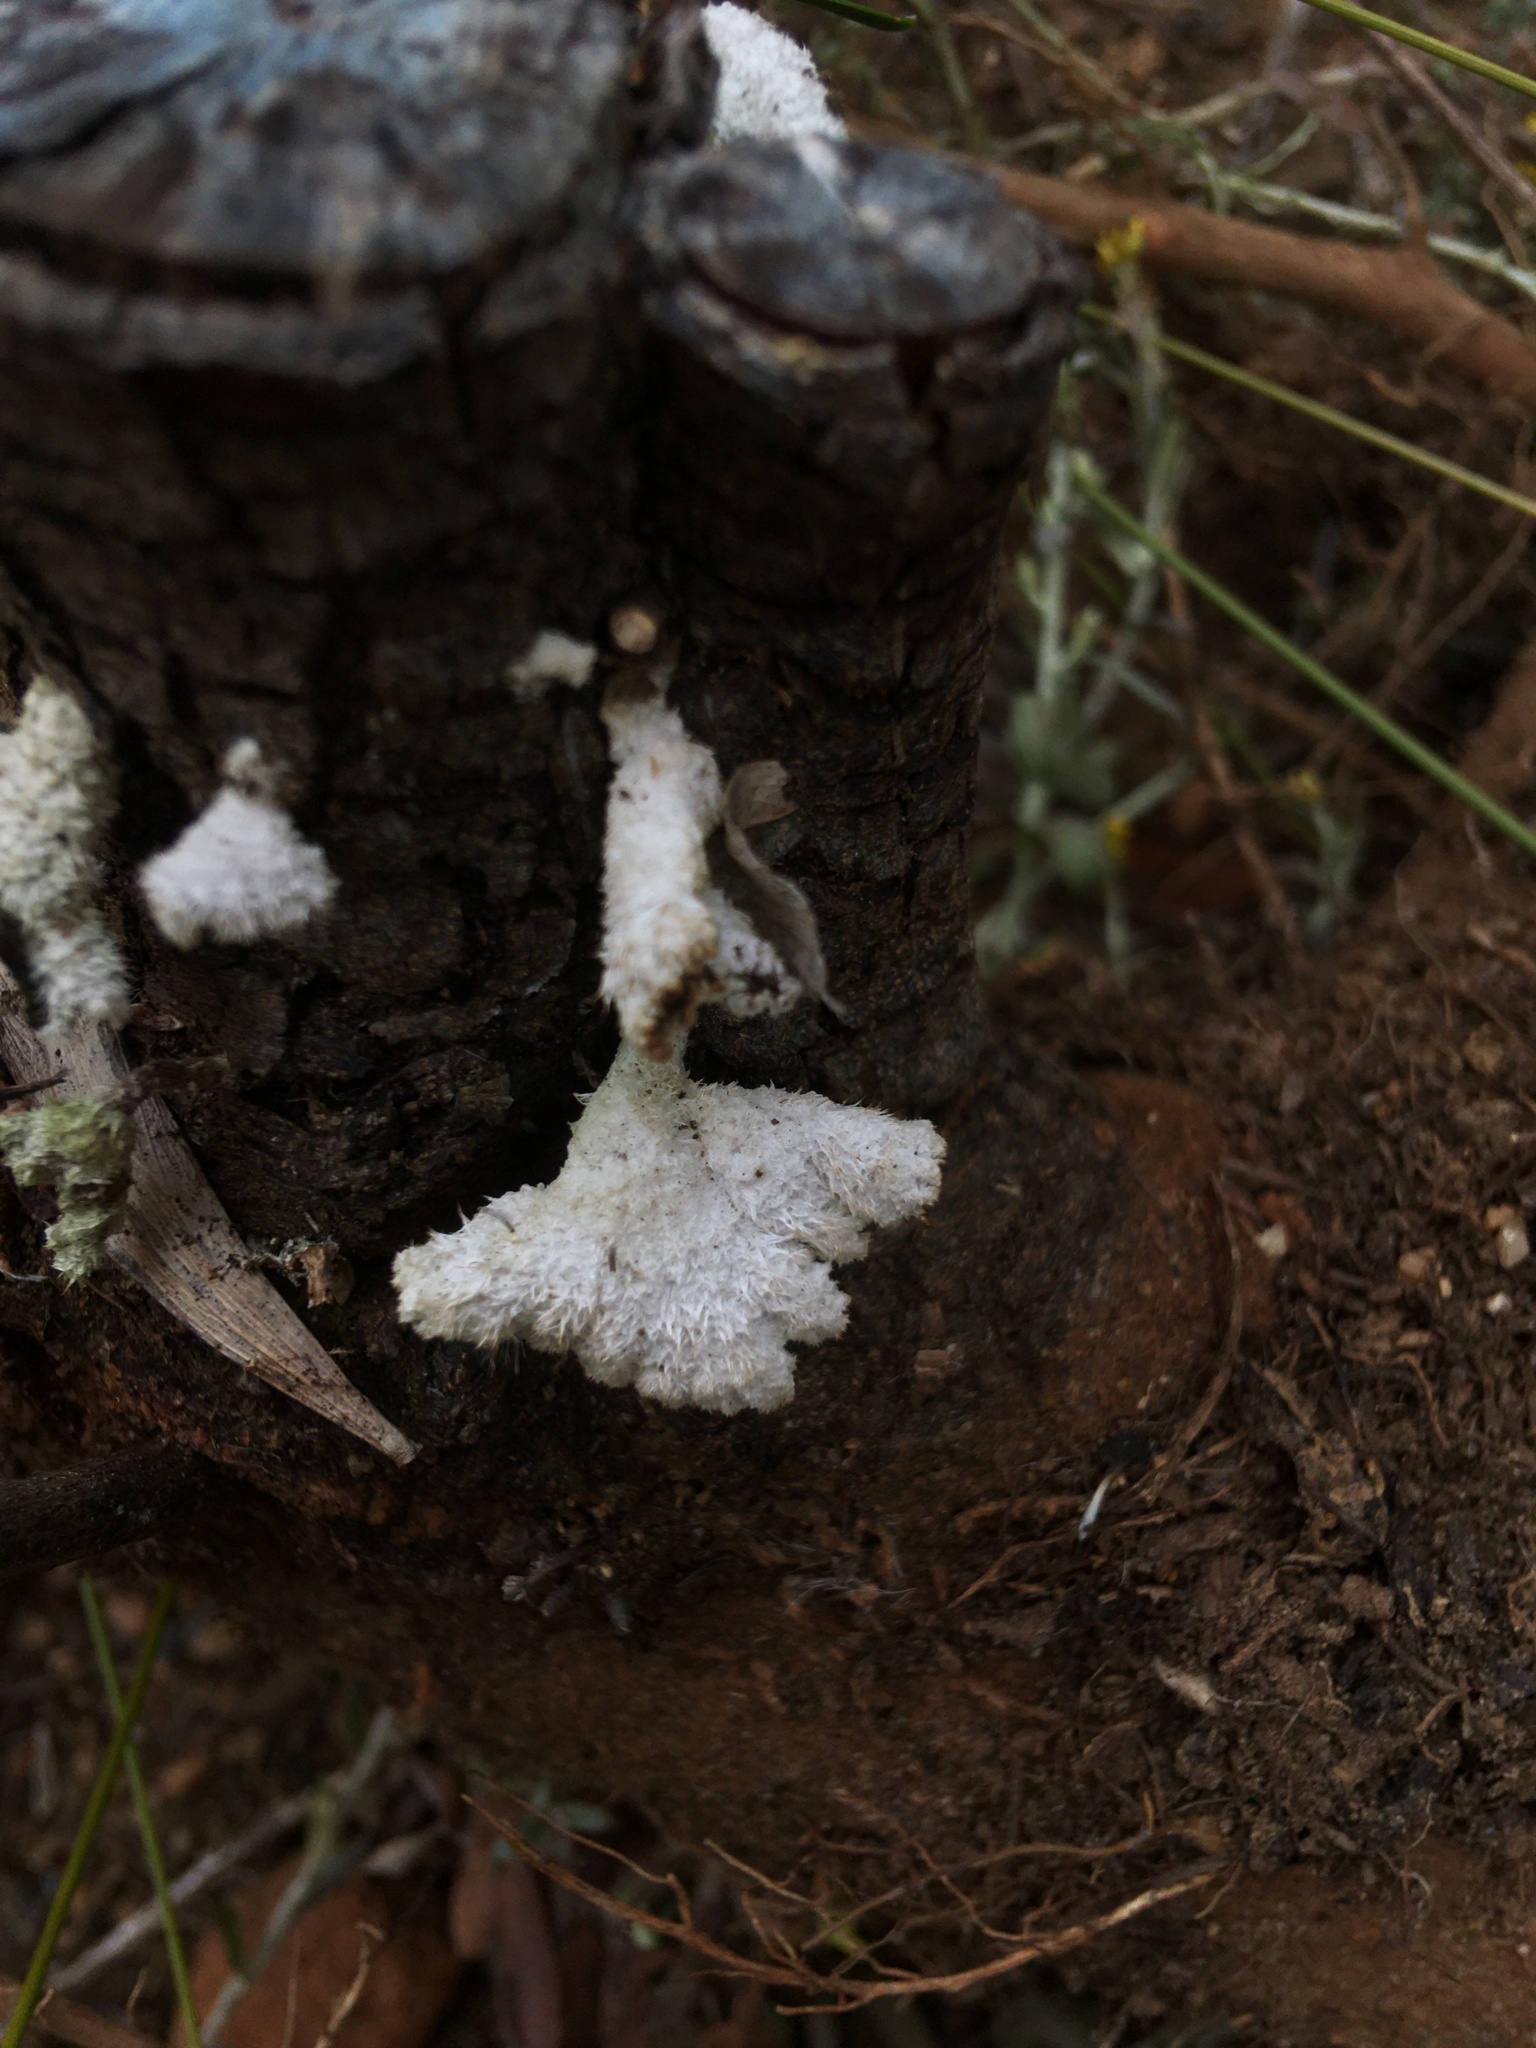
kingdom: Fungi
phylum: Basidiomycota
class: Agaricomycetes
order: Agaricales
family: Schizophyllaceae
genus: Schizophyllum
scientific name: Schizophyllum commune
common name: Common porecrust
